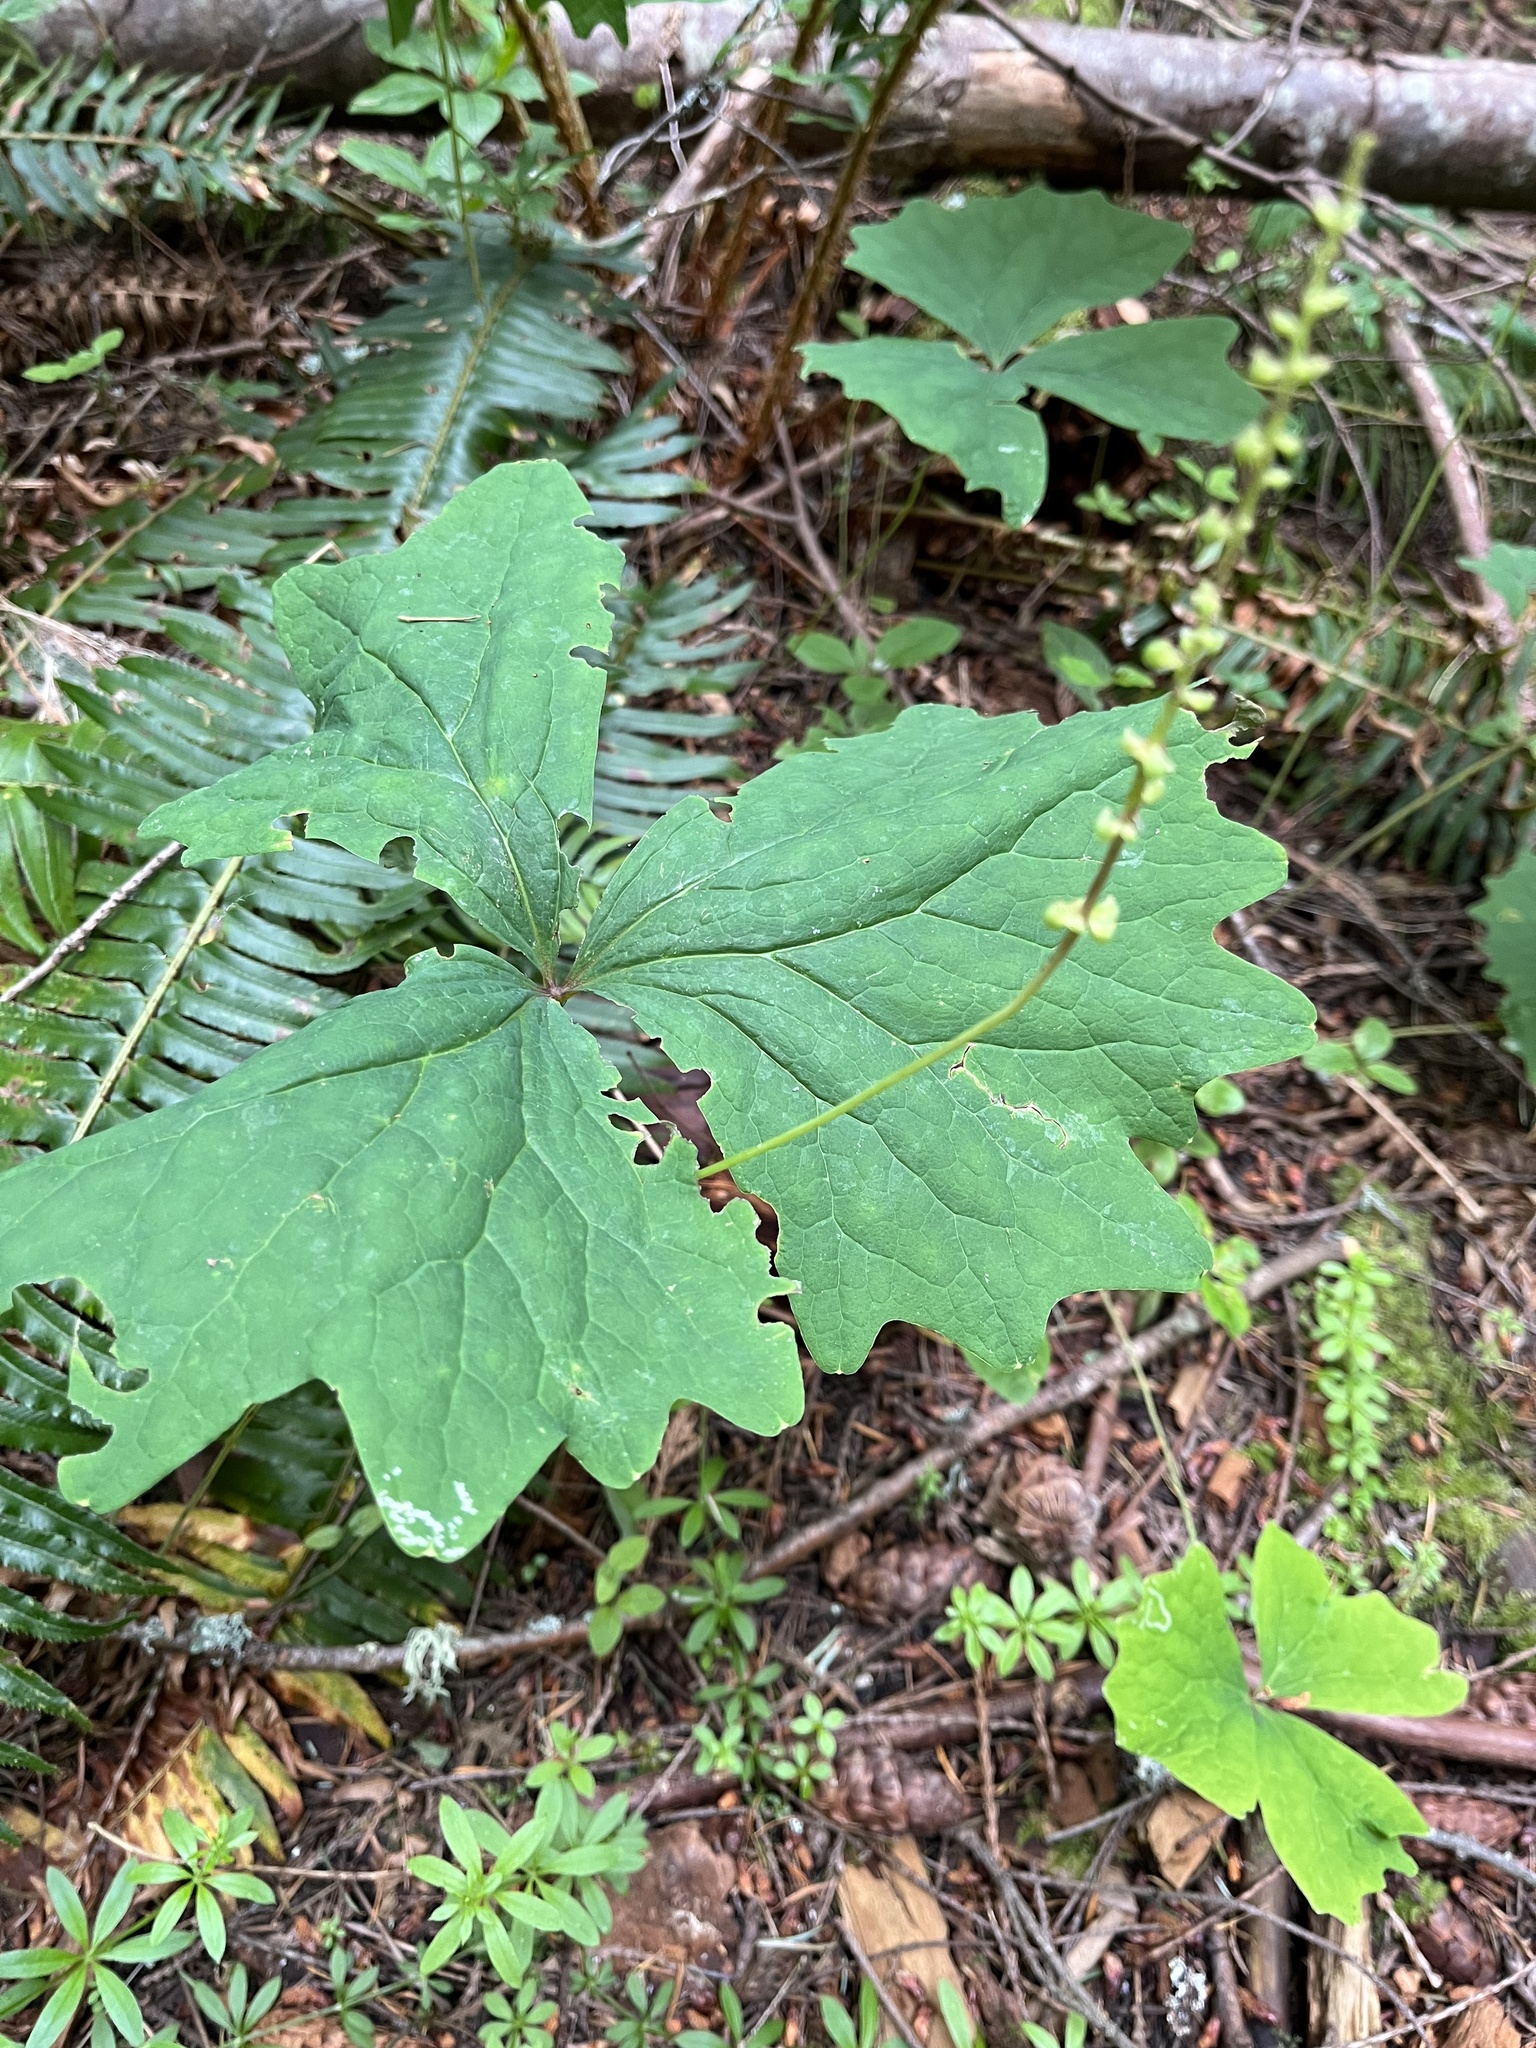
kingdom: Plantae
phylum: Tracheophyta
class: Magnoliopsida
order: Ranunculales
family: Berberidaceae
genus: Achlys
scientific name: Achlys triphylla
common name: Vanilla-leaf
